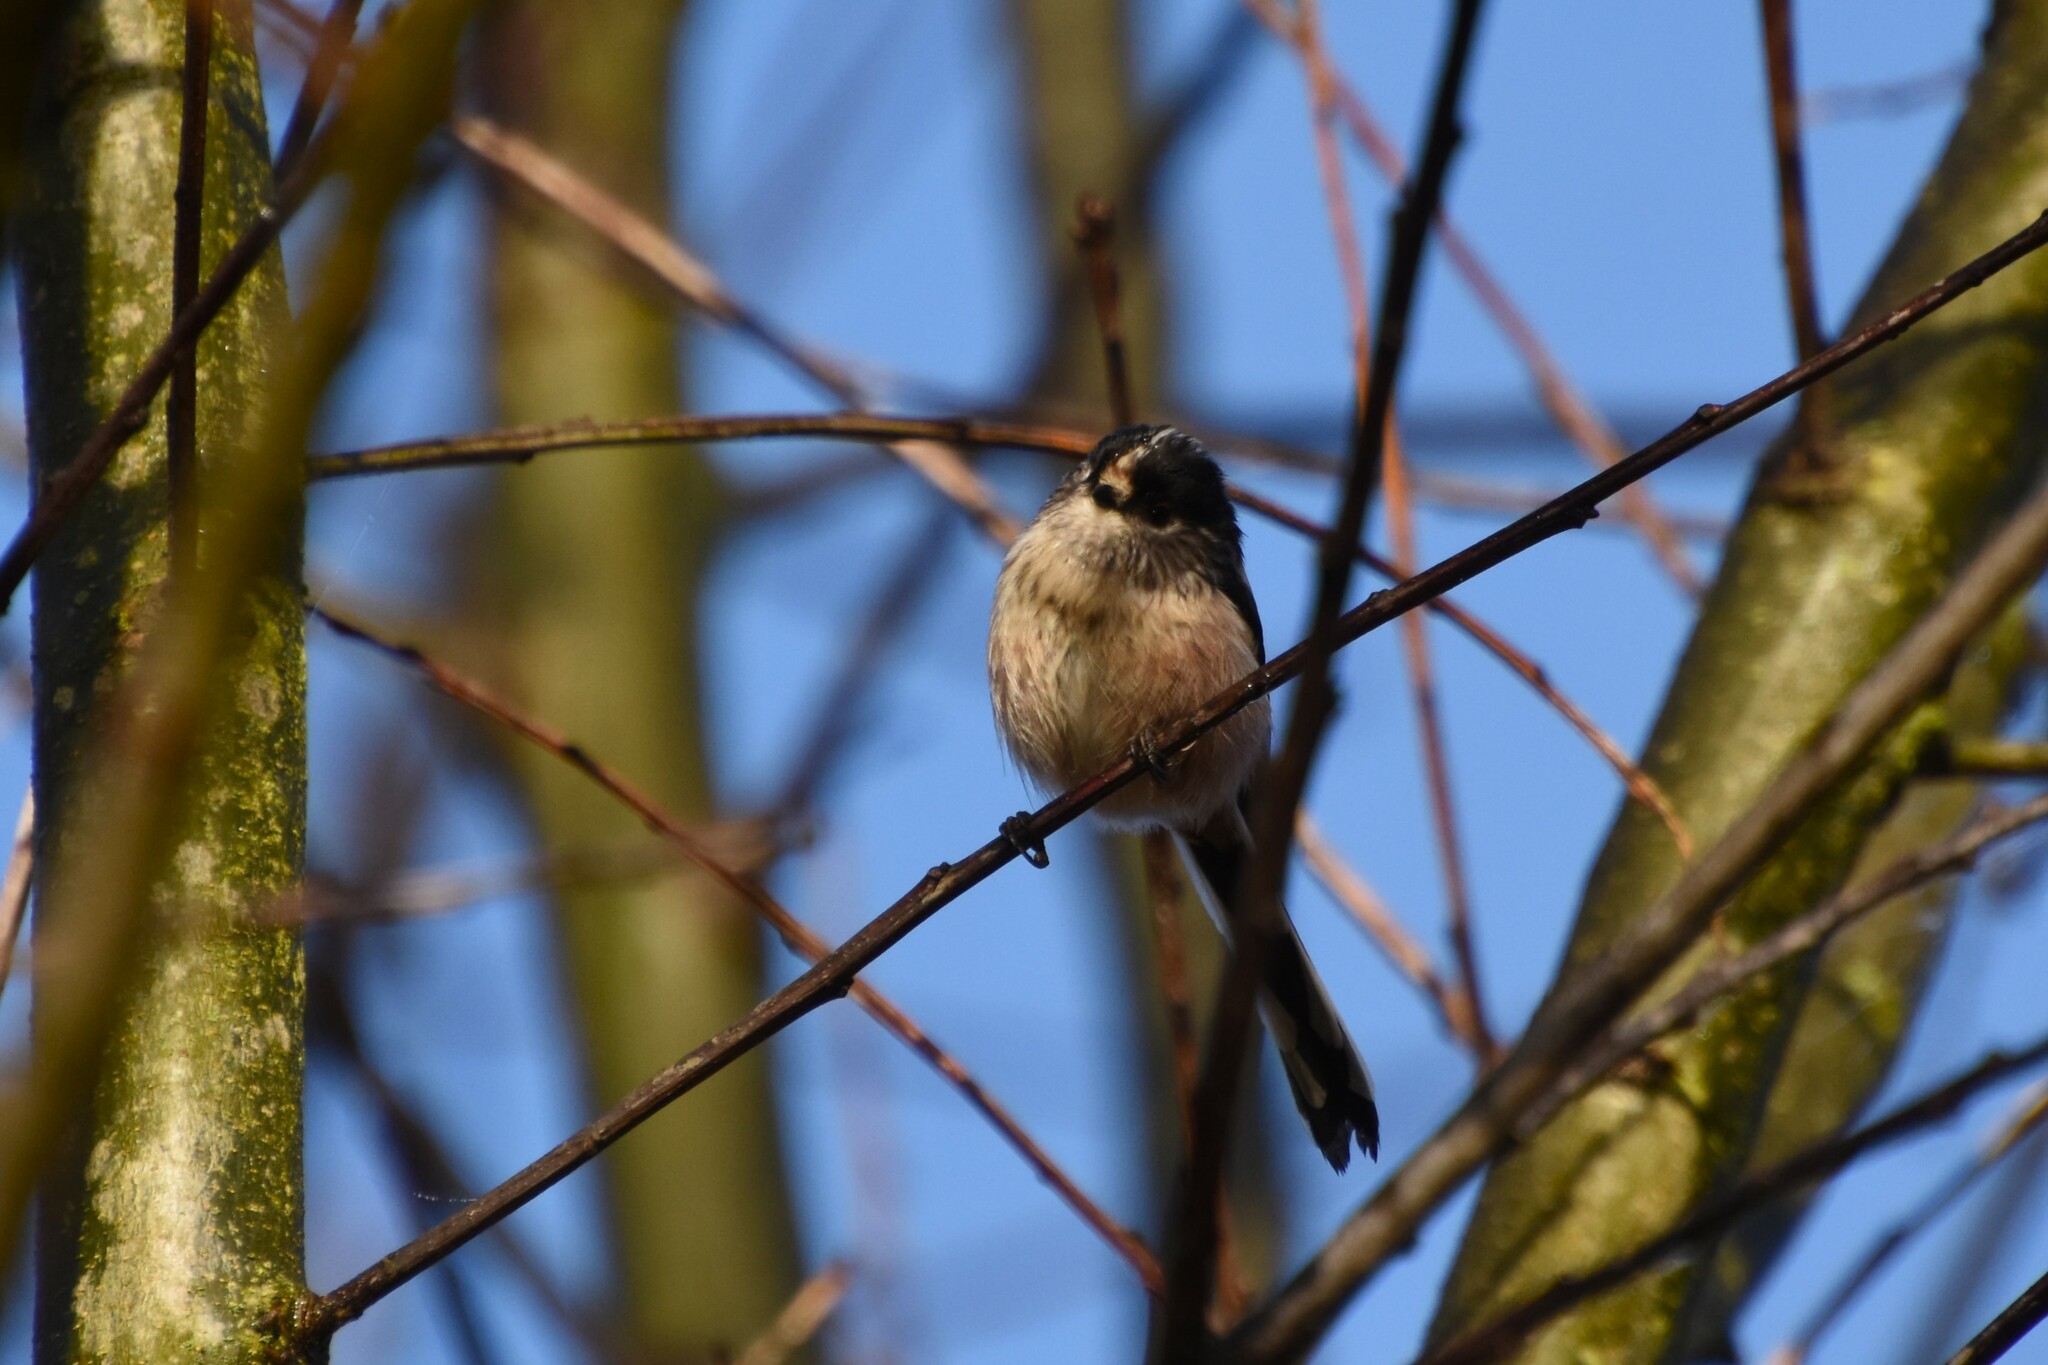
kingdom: Animalia
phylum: Chordata
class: Aves
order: Passeriformes
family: Aegithalidae
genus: Aegithalos
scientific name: Aegithalos caudatus
